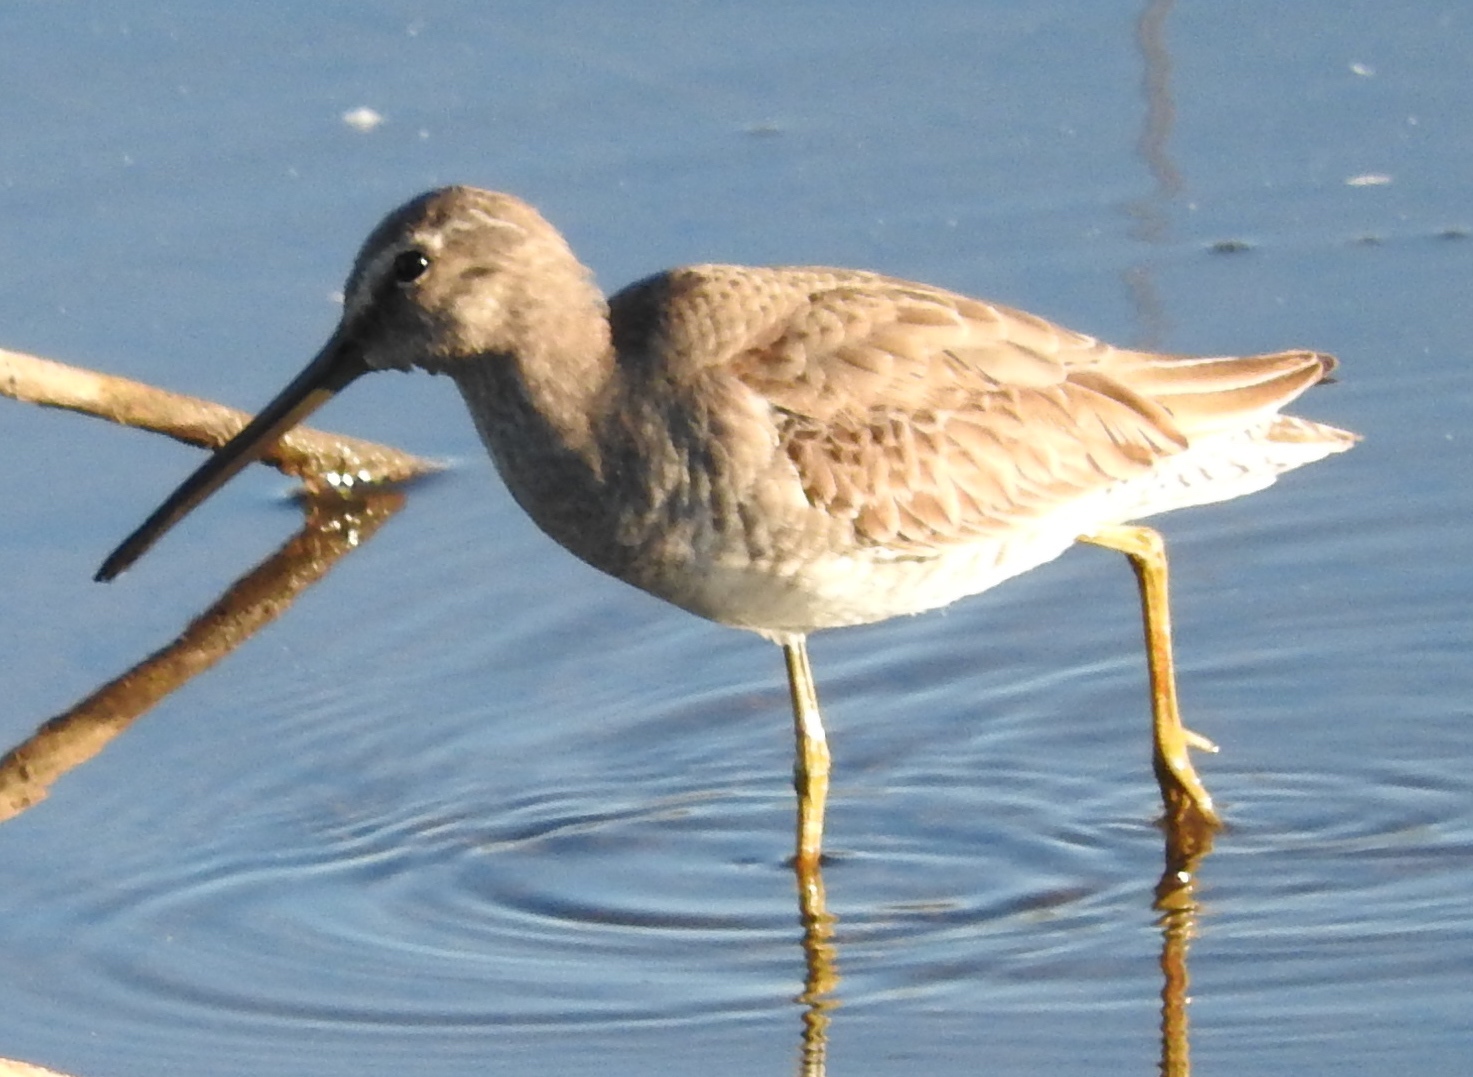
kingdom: Animalia
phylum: Chordata
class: Aves
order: Charadriiformes
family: Scolopacidae
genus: Limnodromus
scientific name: Limnodromus griseus
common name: Short-billed dowitcher
